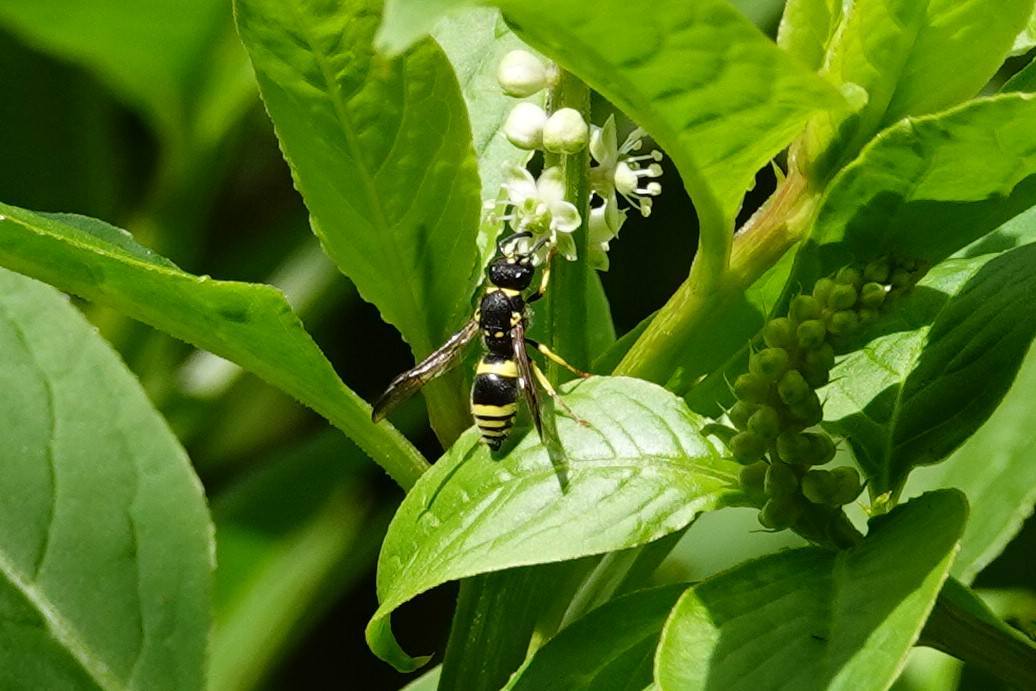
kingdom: Animalia
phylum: Arthropoda
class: Insecta
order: Hymenoptera
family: Vespidae
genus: Ancistrocerus
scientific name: Ancistrocerus gazella
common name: European tube wasp
